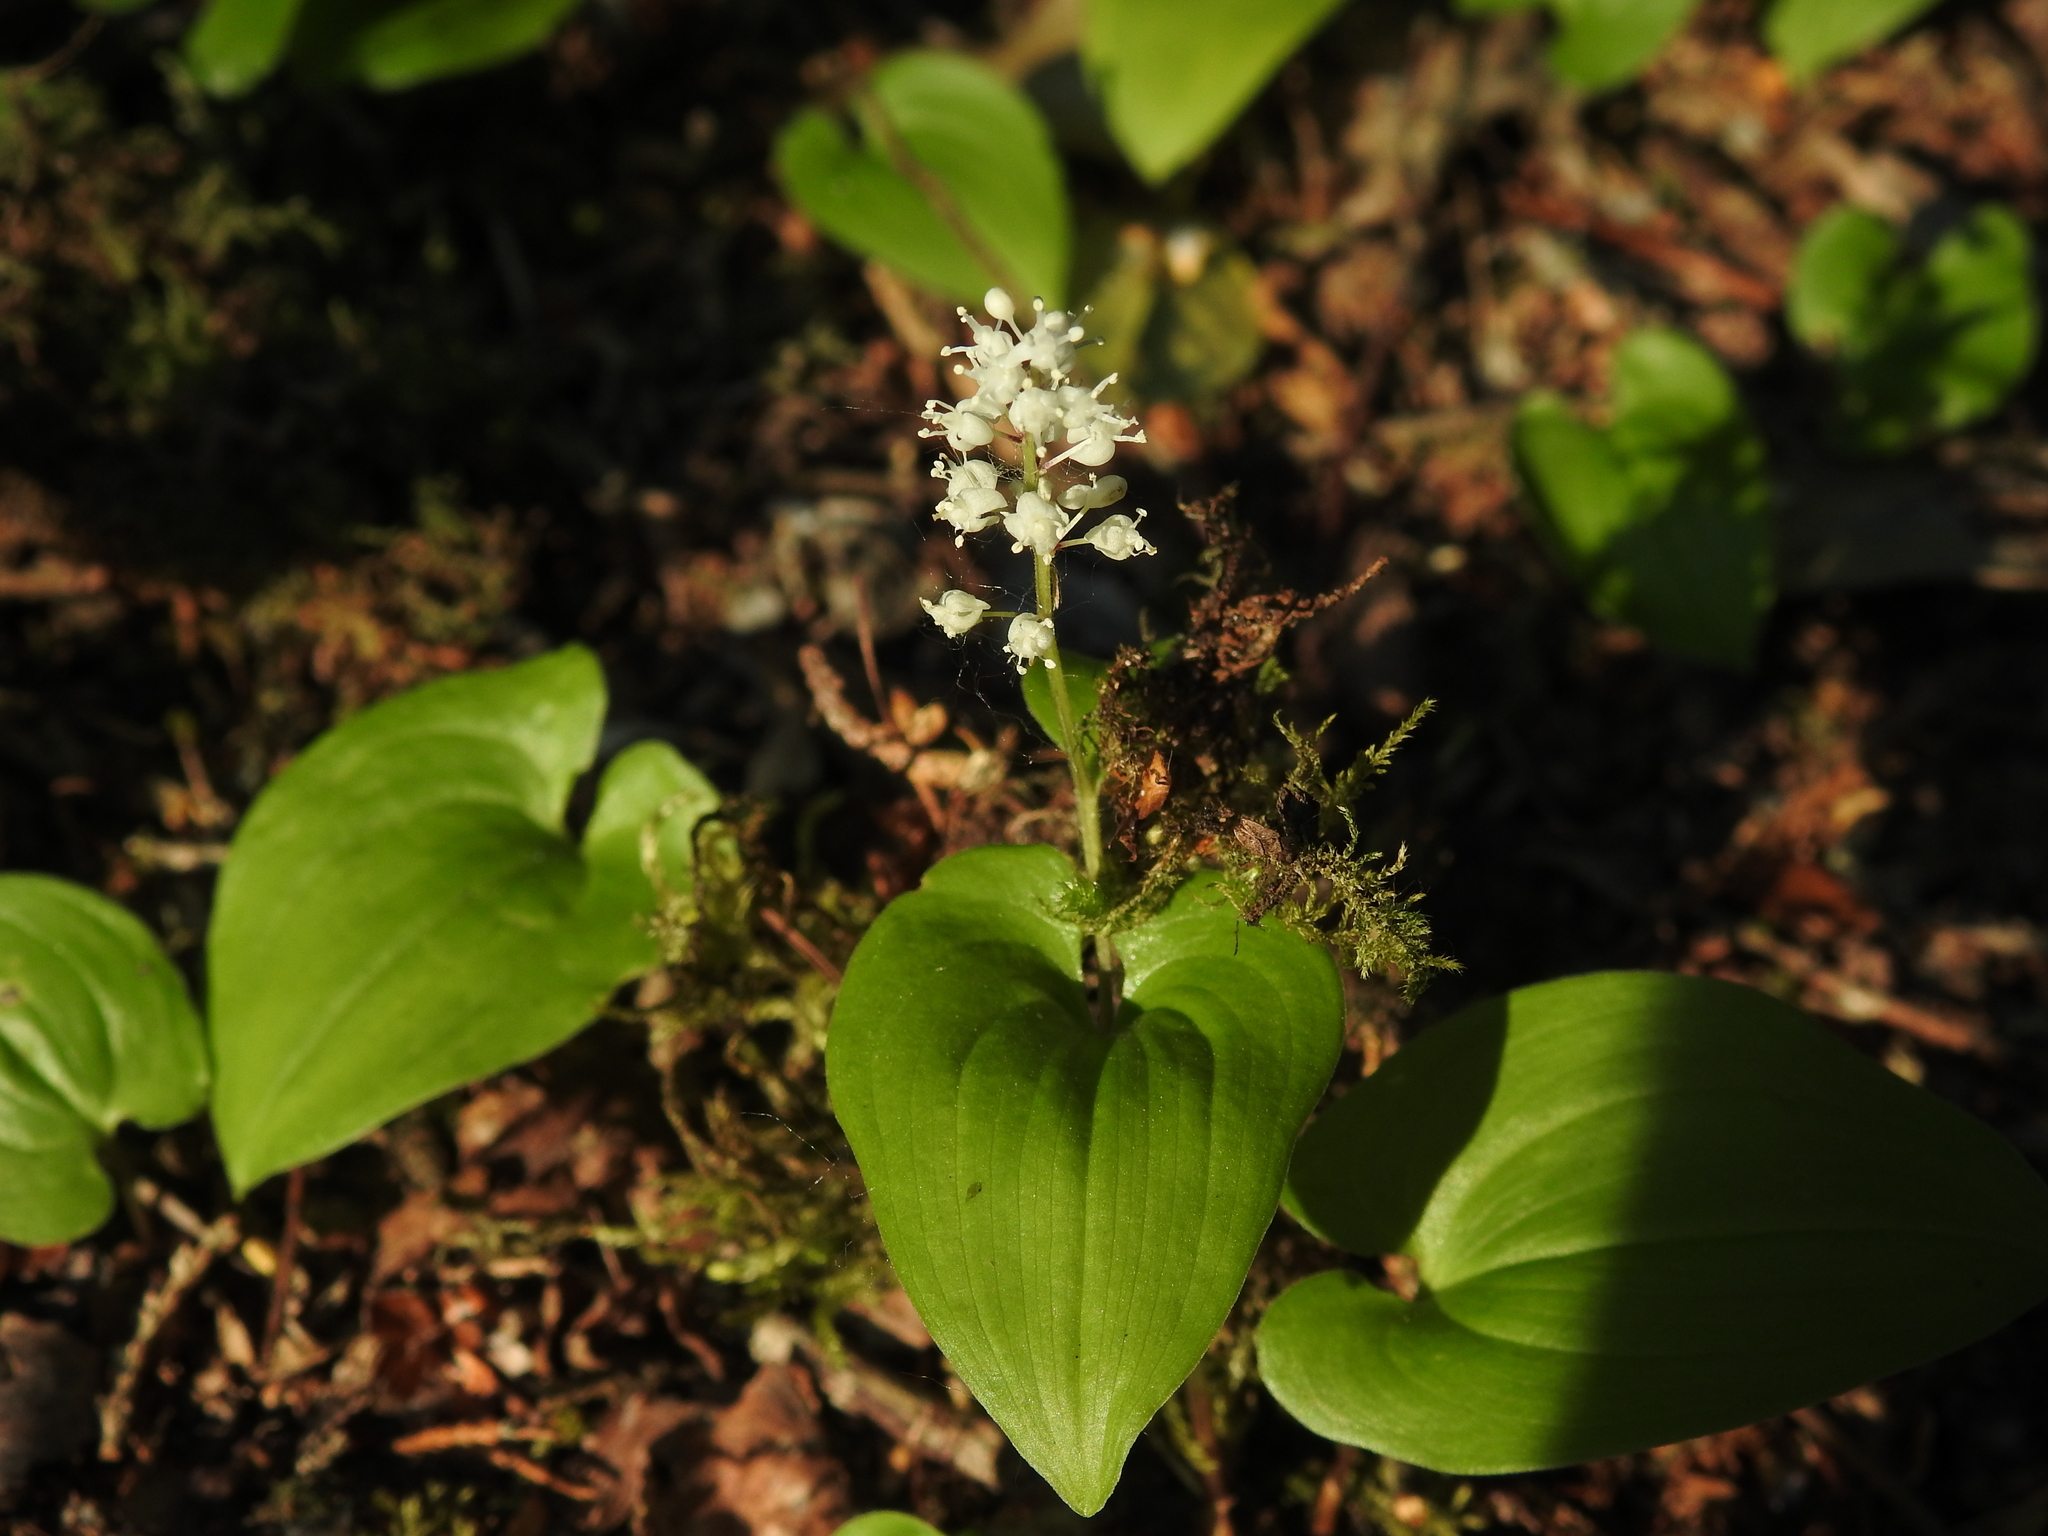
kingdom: Plantae
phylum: Tracheophyta
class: Liliopsida
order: Asparagales
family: Asparagaceae
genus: Maianthemum
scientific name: Maianthemum bifolium
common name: May lily
